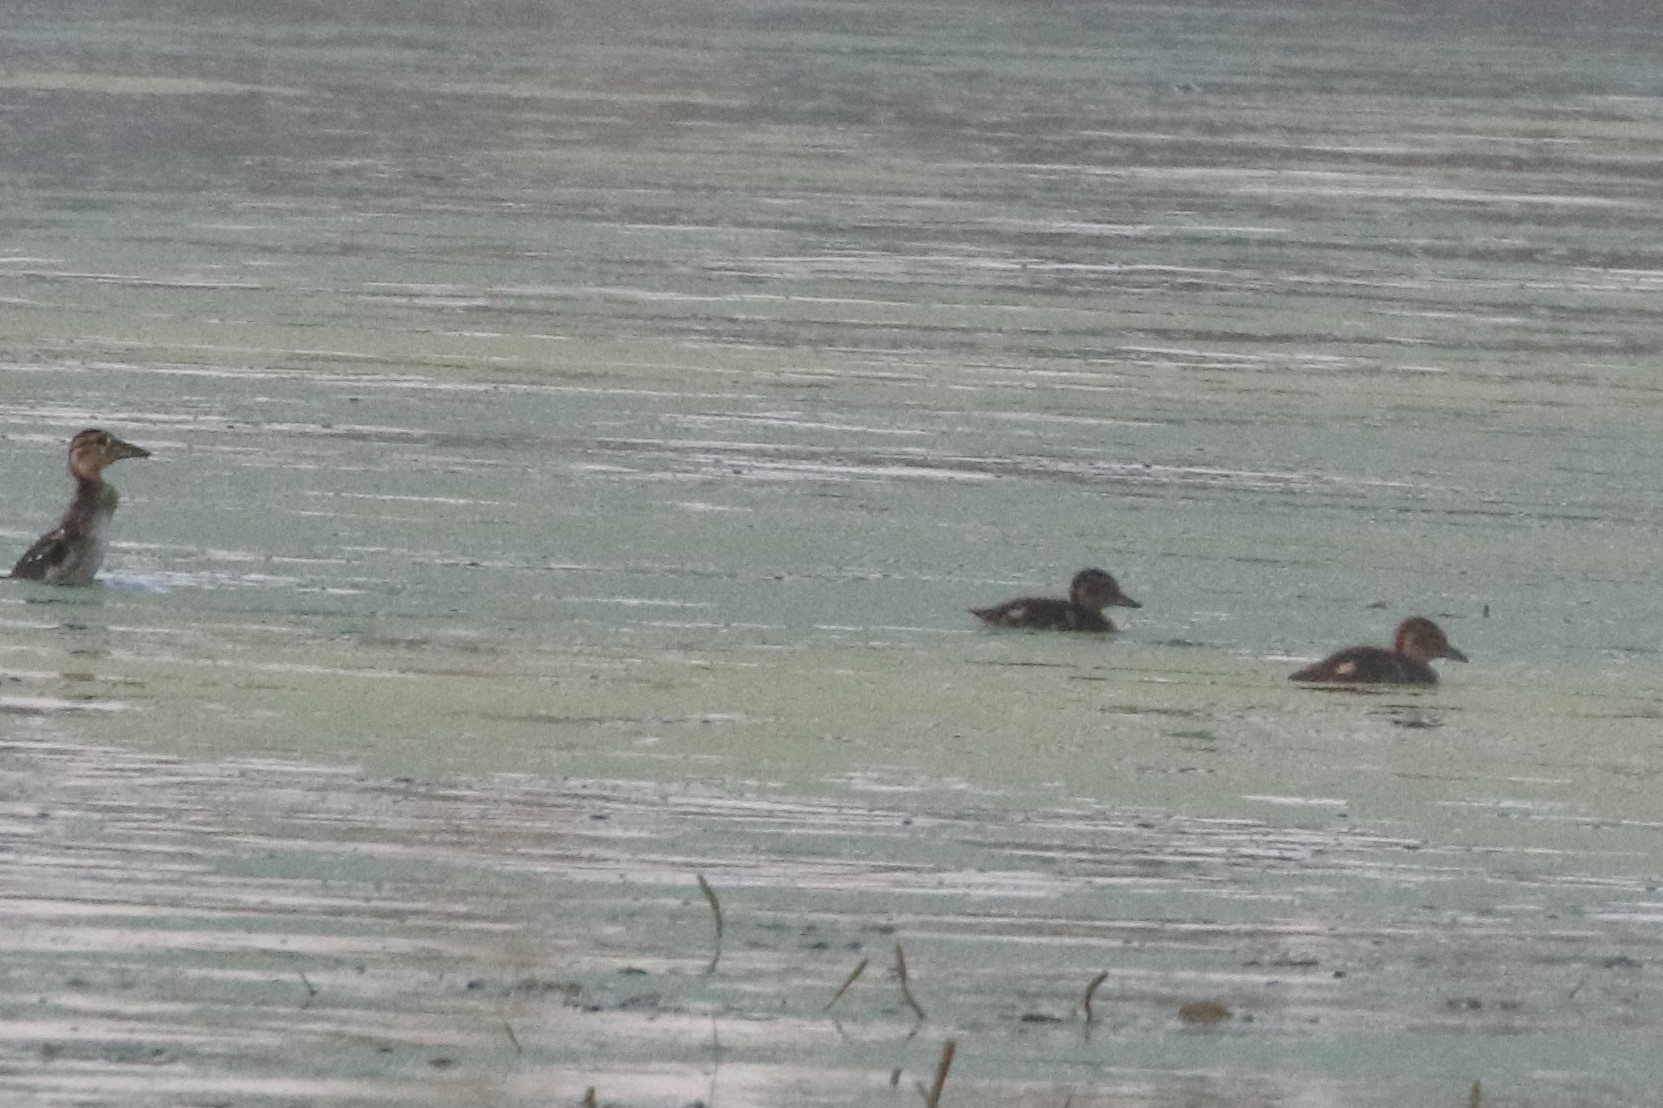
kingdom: Animalia
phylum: Chordata
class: Aves
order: Anseriformes
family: Anatidae
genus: Anas
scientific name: Anas crecca
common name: Eurasian teal
